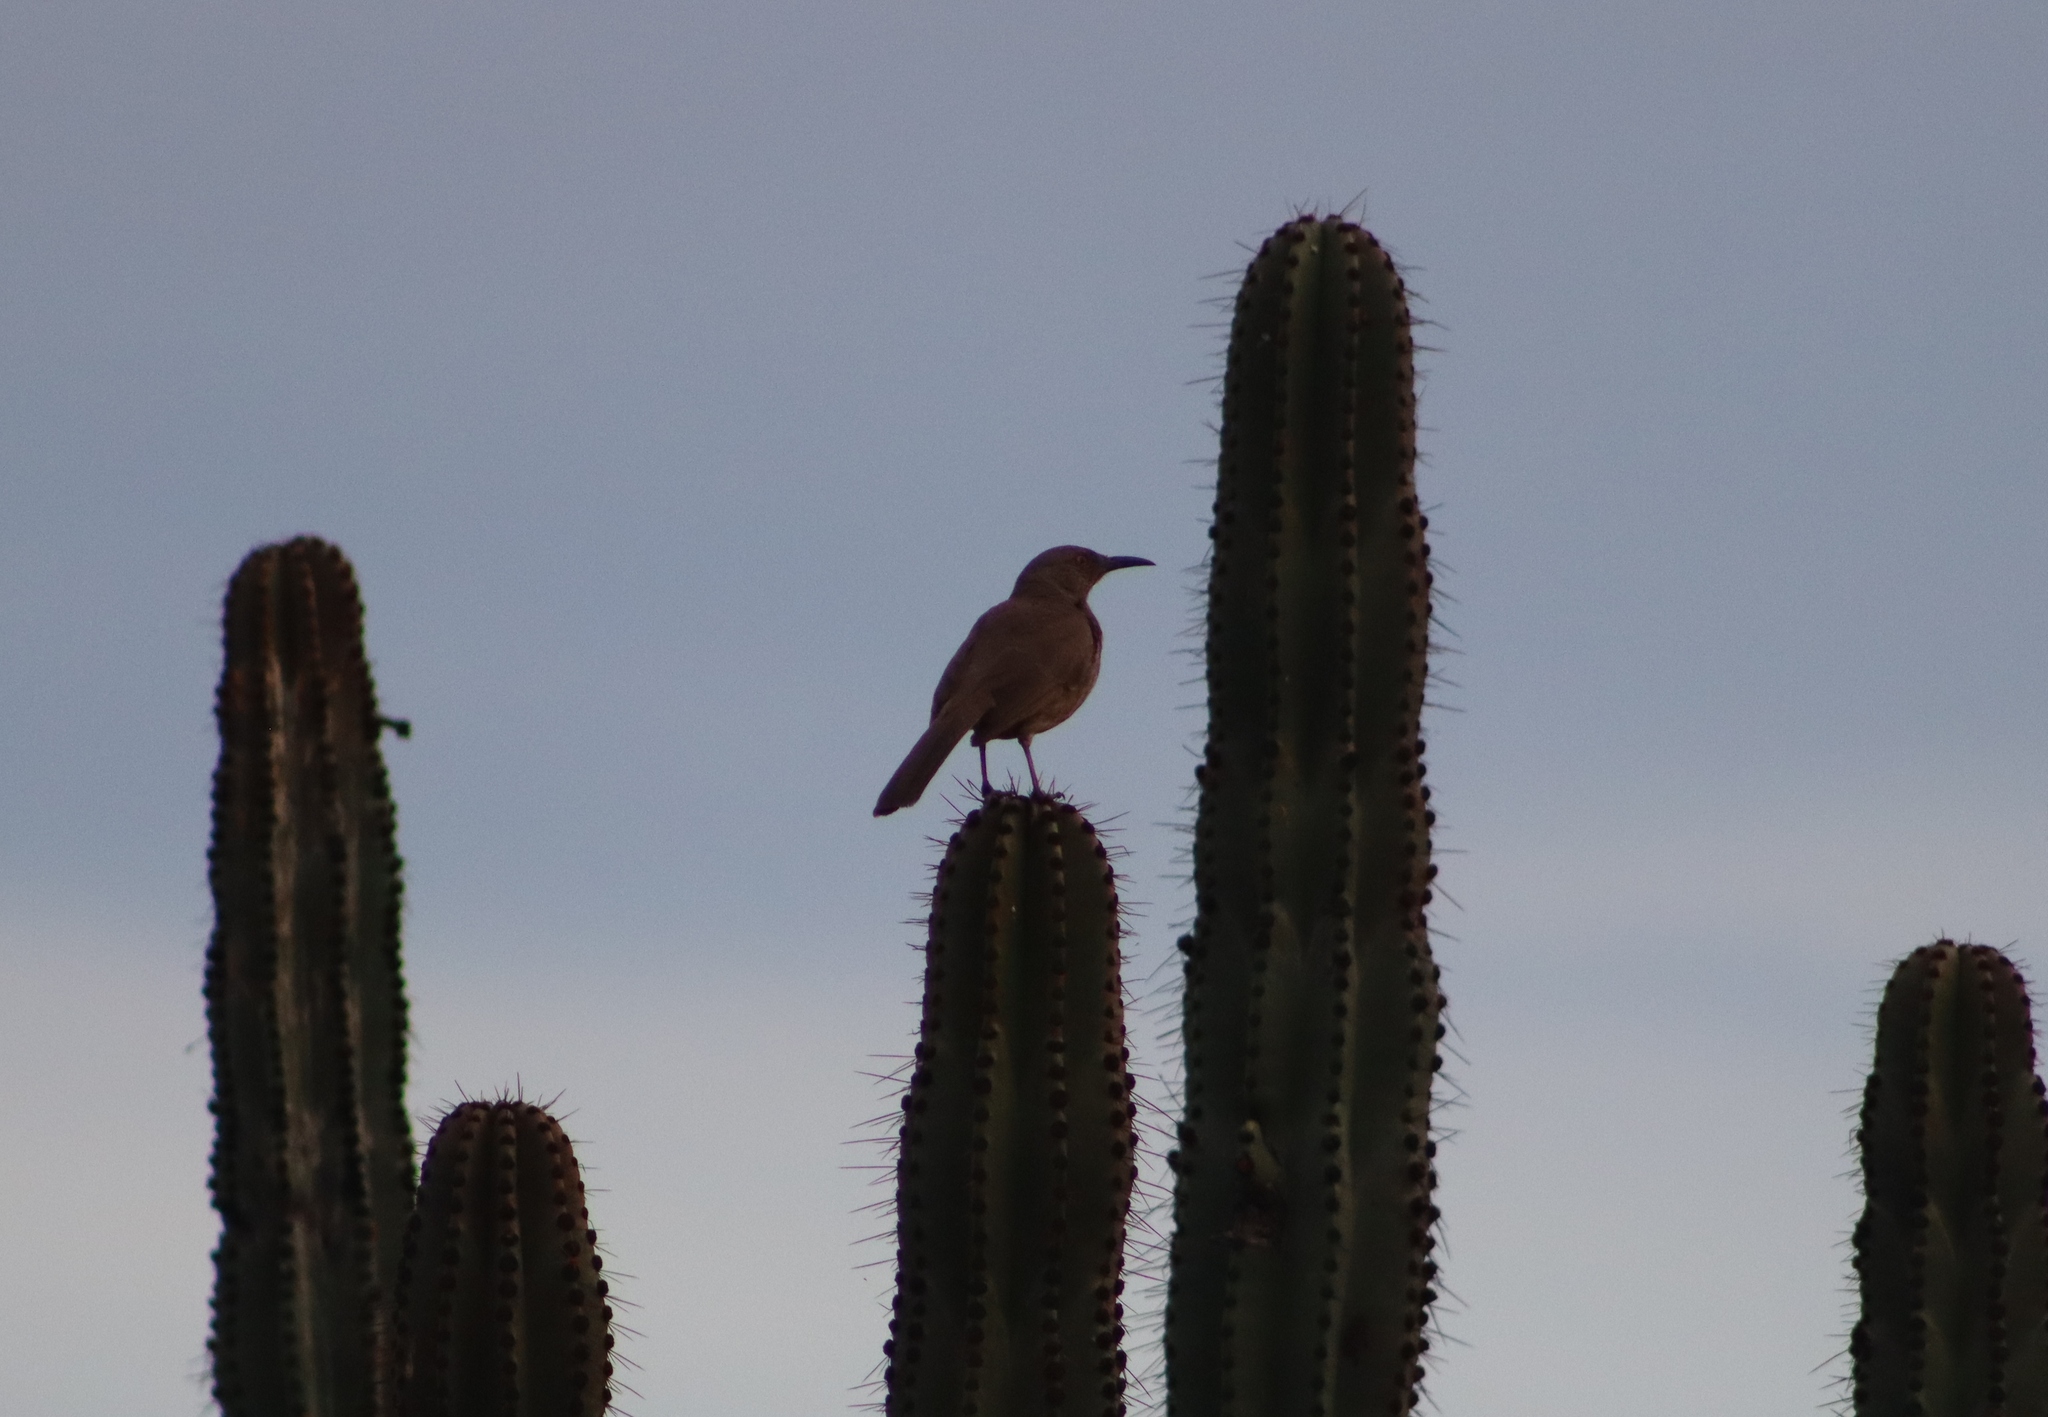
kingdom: Animalia
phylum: Chordata
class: Aves
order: Passeriformes
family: Mimidae
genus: Toxostoma
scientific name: Toxostoma curvirostre
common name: Curve-billed thrasher
